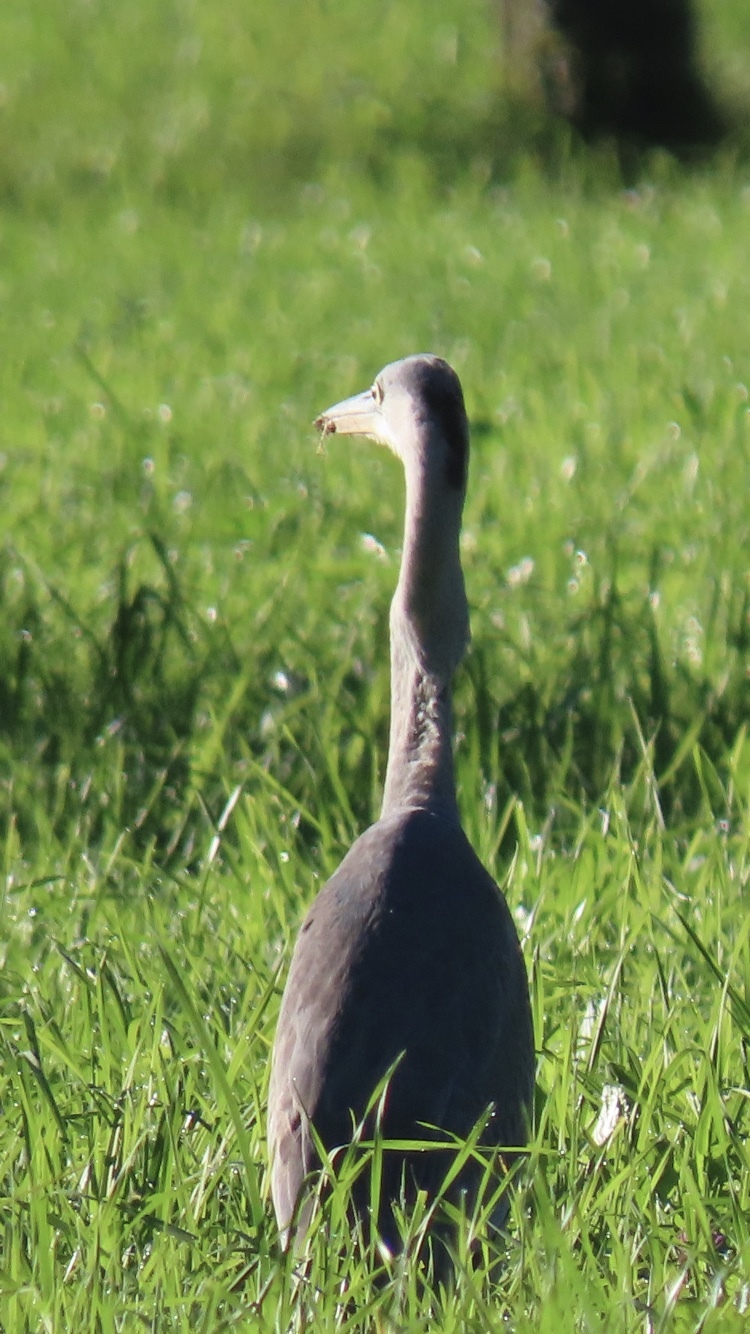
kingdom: Animalia
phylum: Chordata
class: Aves
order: Pelecaniformes
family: Ardeidae
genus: Ardea
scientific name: Ardea cinerea
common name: Grey heron
